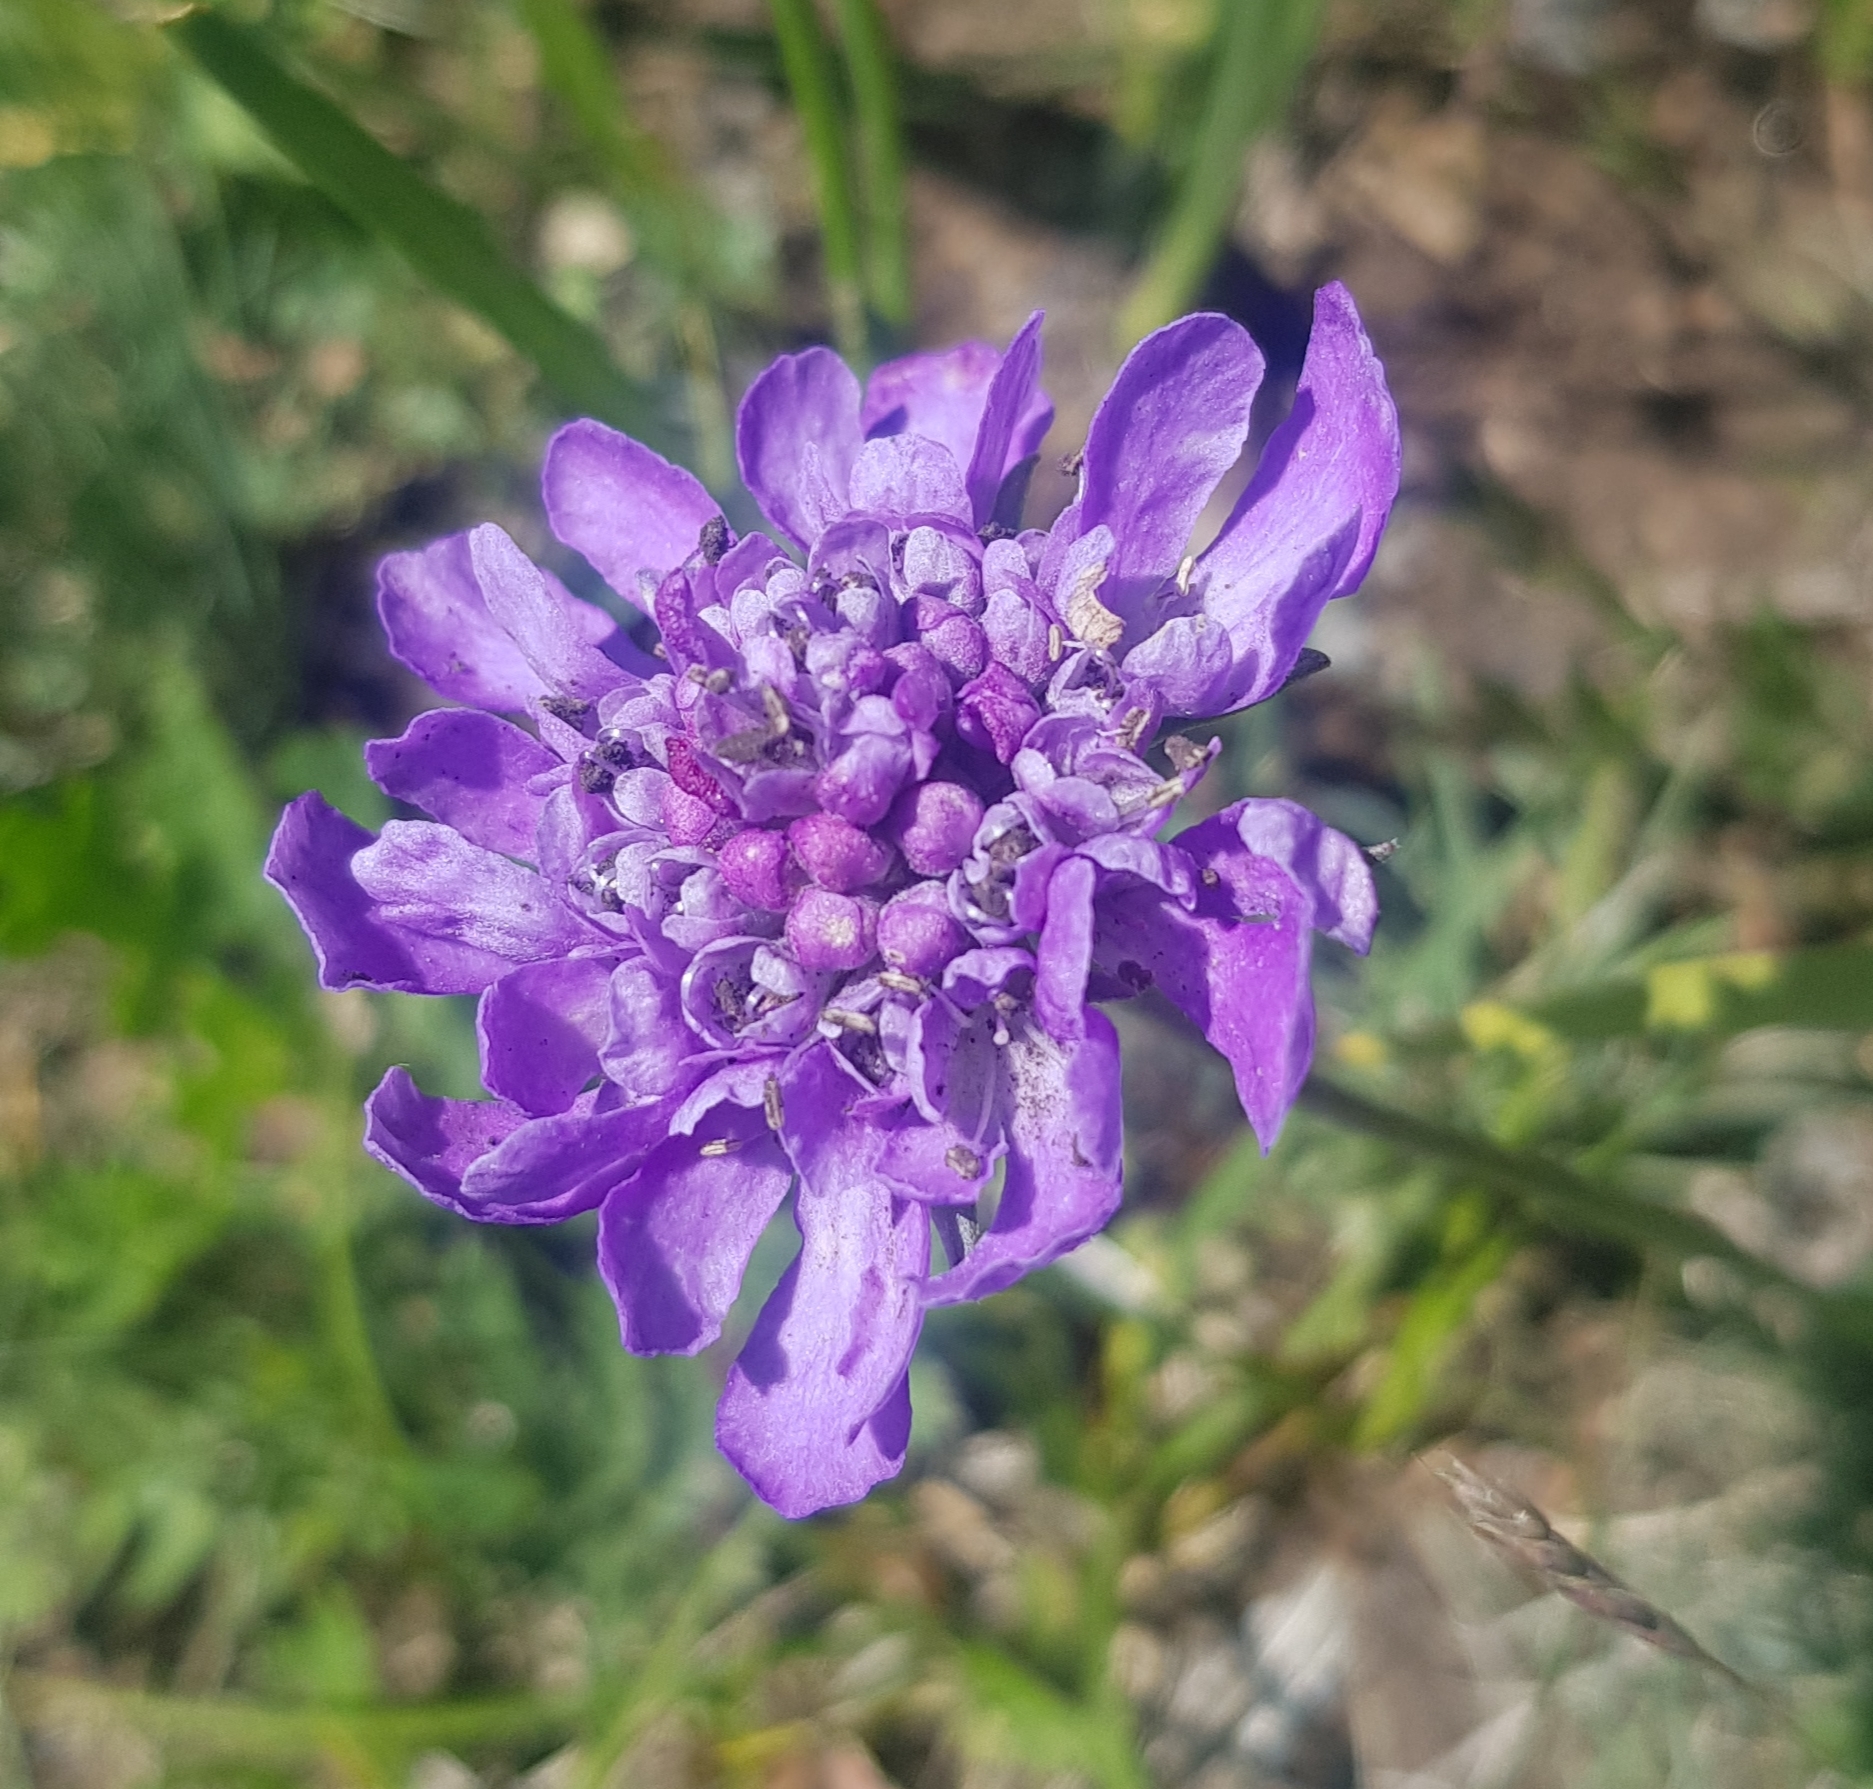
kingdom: Plantae
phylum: Tracheophyta
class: Magnoliopsida
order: Dipsacales
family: Caprifoliaceae
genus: Scabiosa
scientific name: Scabiosa comosa
